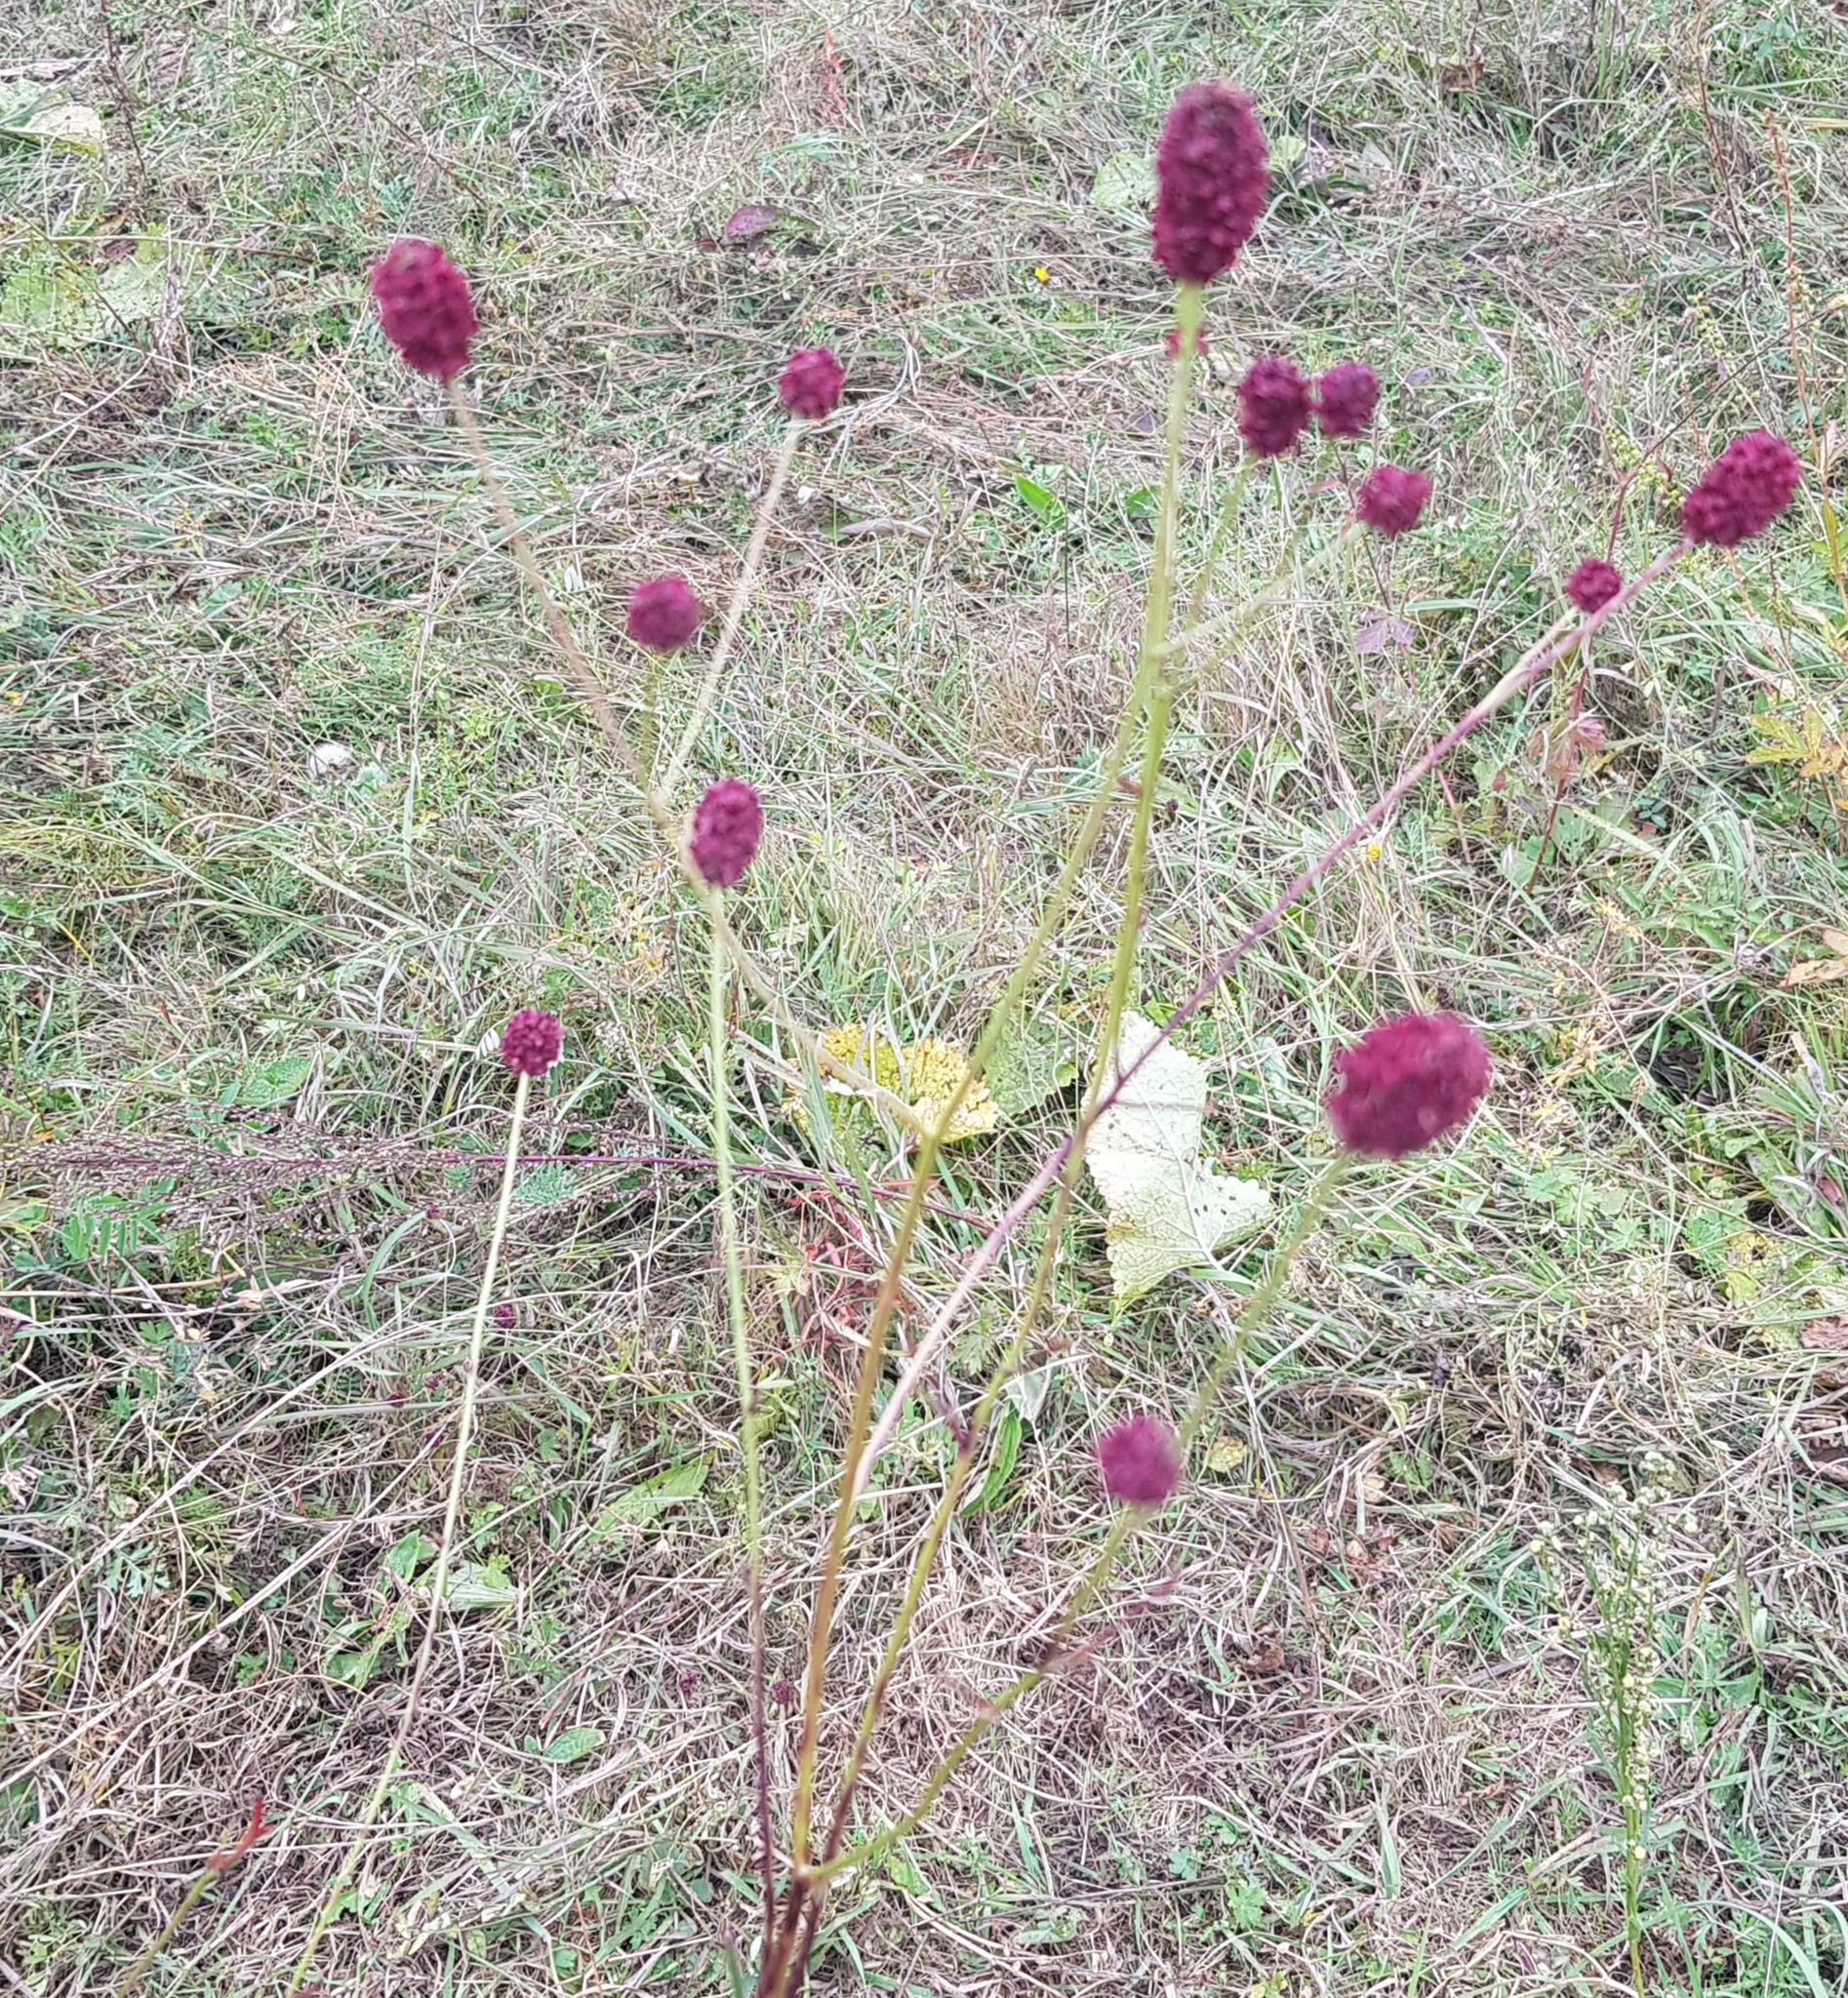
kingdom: Plantae
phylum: Tracheophyta
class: Magnoliopsida
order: Rosales
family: Rosaceae
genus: Sanguisorba
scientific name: Sanguisorba officinalis
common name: Great burnet
